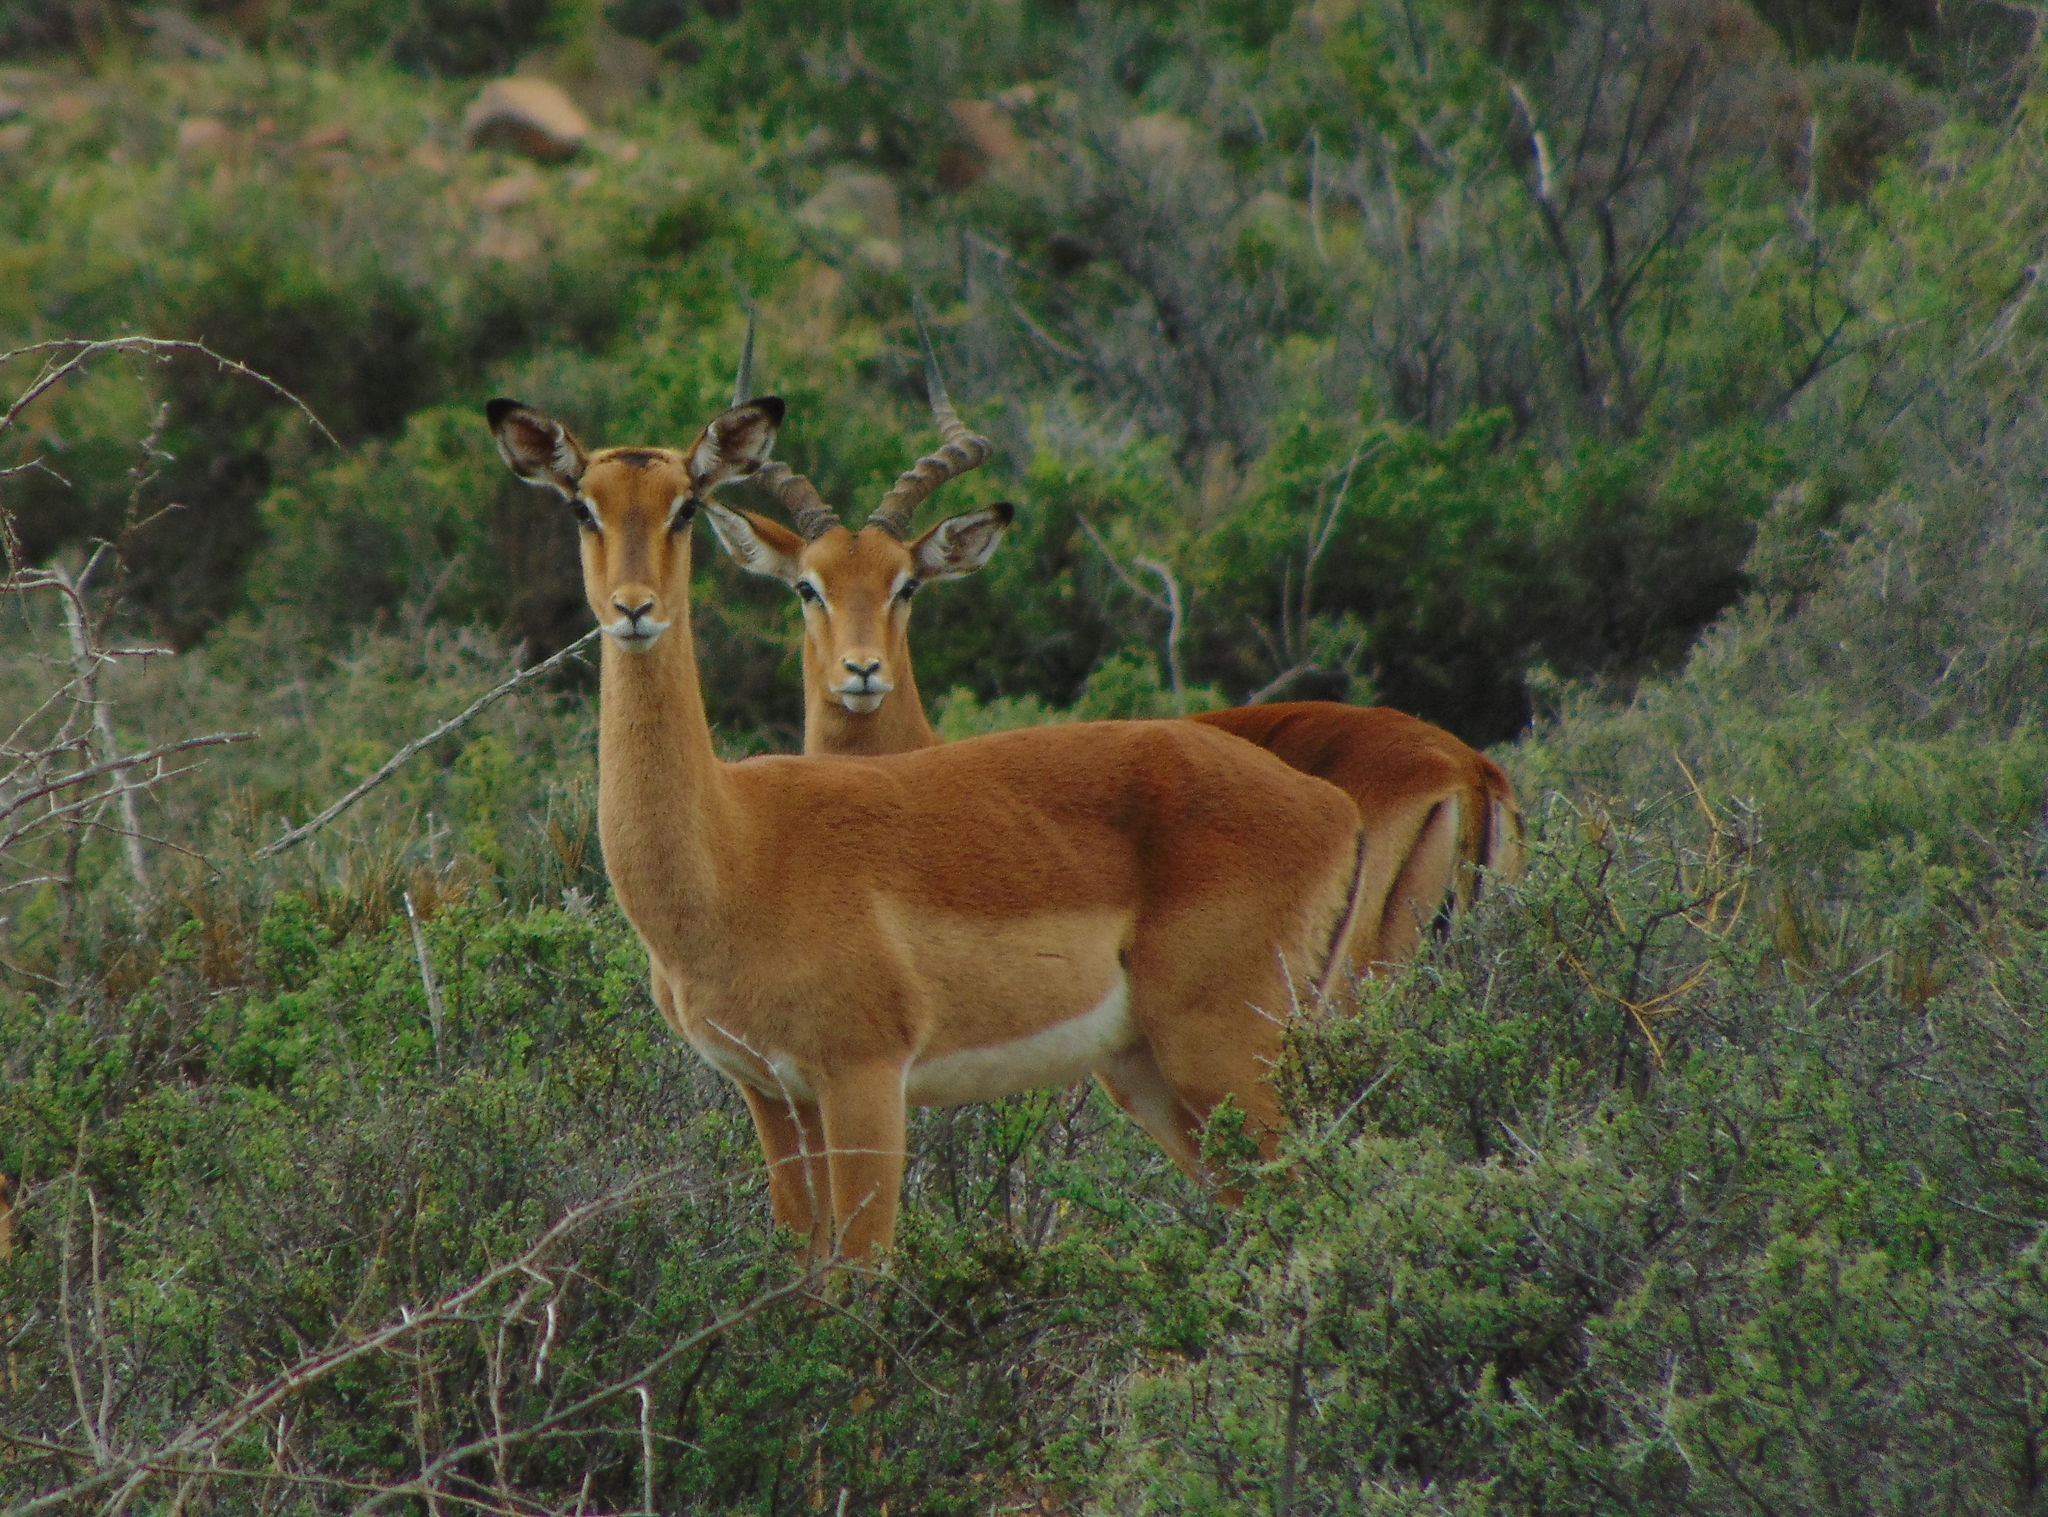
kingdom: Animalia
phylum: Chordata
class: Mammalia
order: Artiodactyla
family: Bovidae
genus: Aepyceros
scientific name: Aepyceros melampus
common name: Impala
